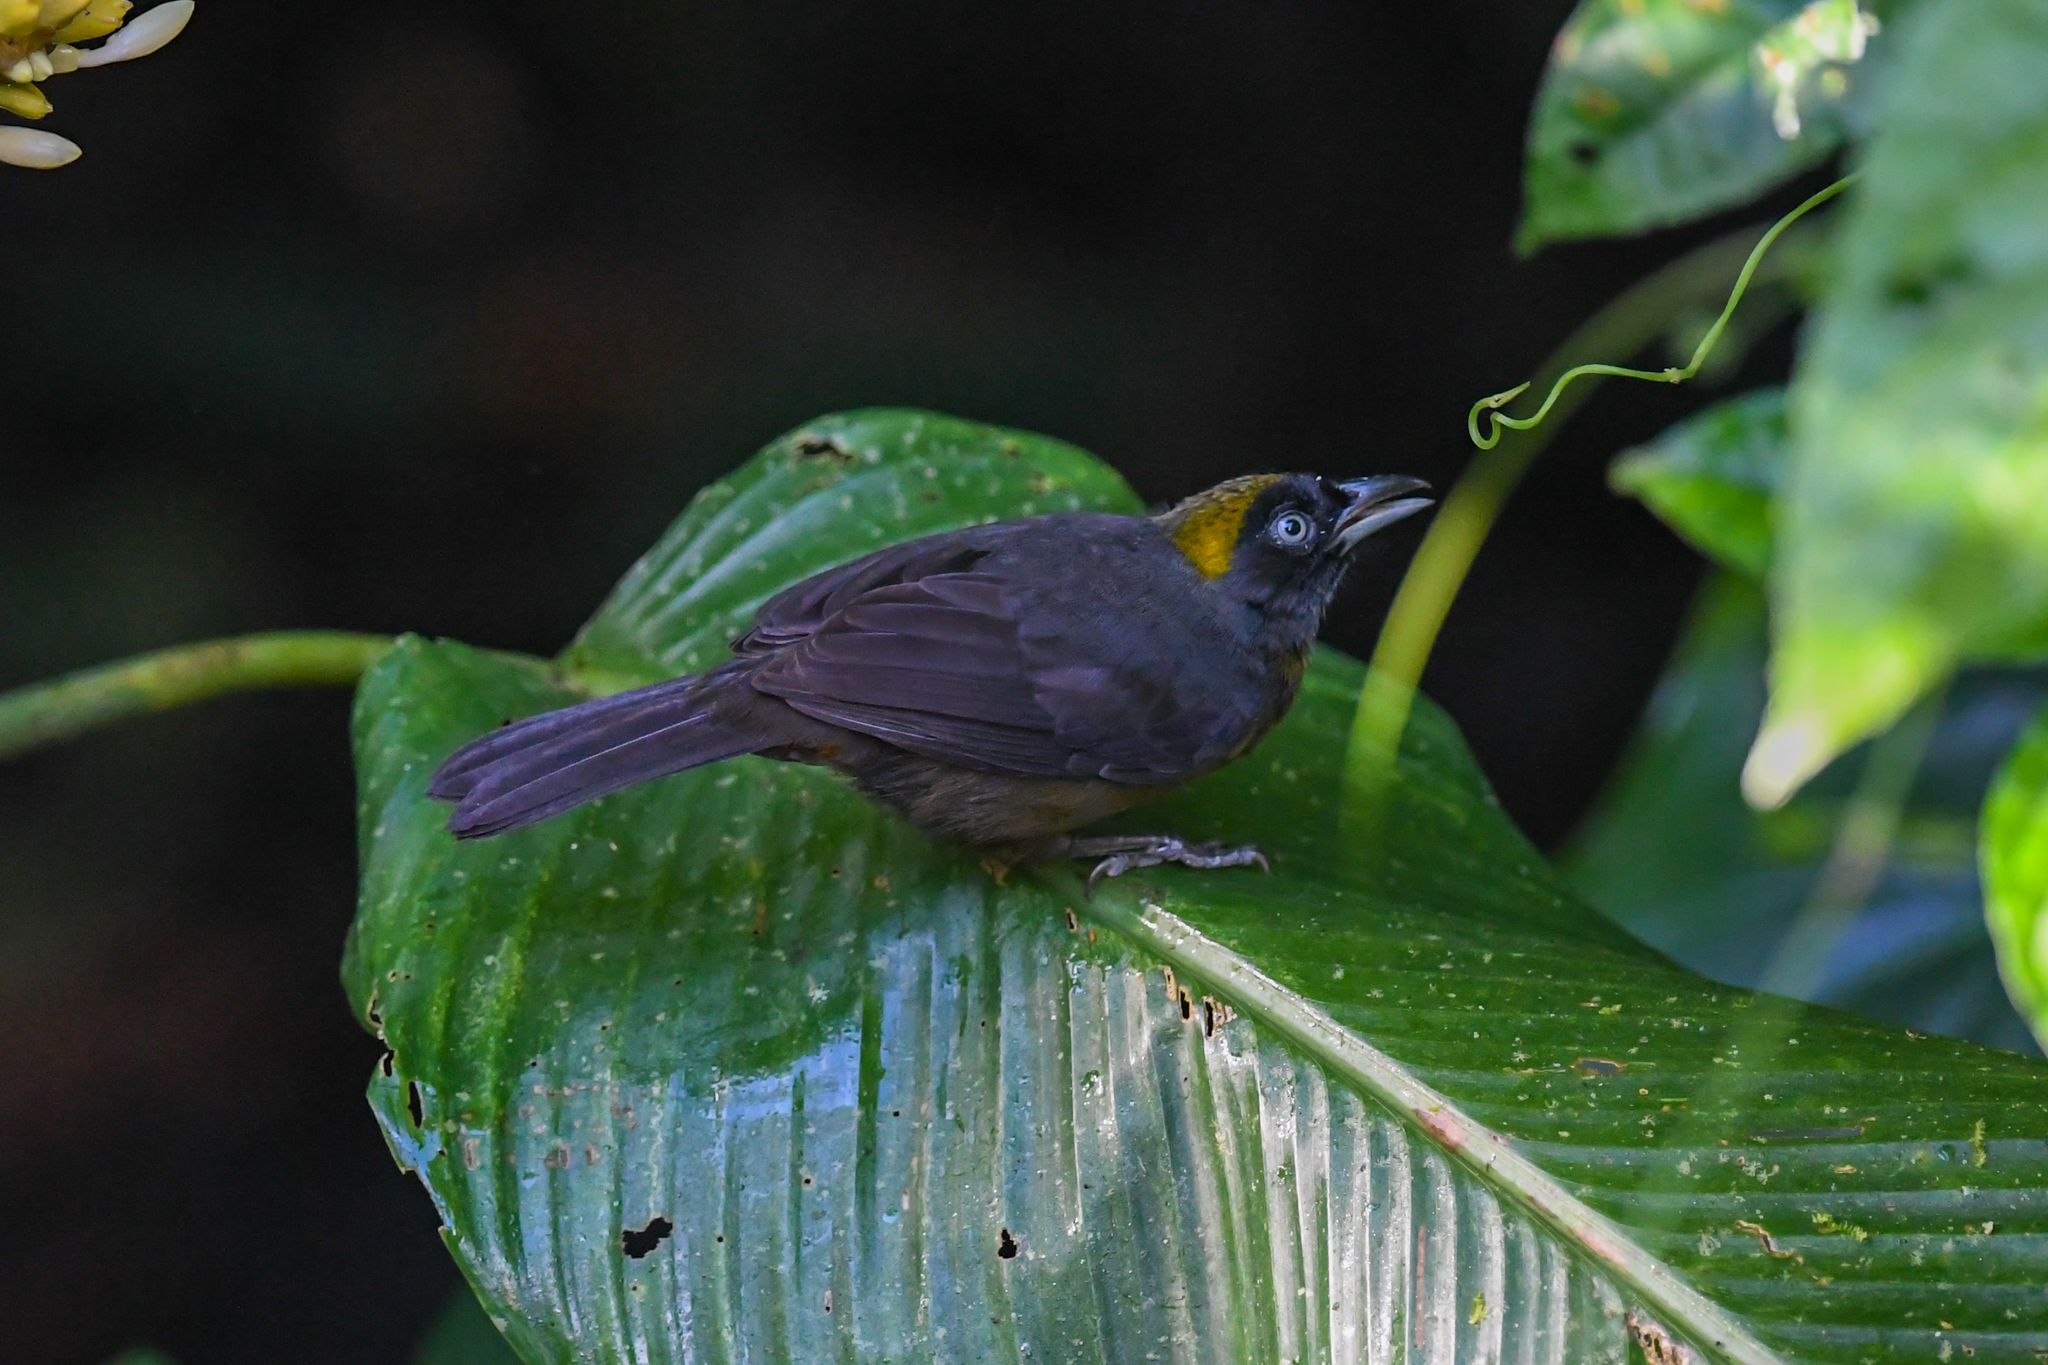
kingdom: Animalia
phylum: Chordata
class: Aves
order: Passeriformes
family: Mitrospingidae
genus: Mitrospingus
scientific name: Mitrospingus cassinii
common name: Dusky-faced tanager
